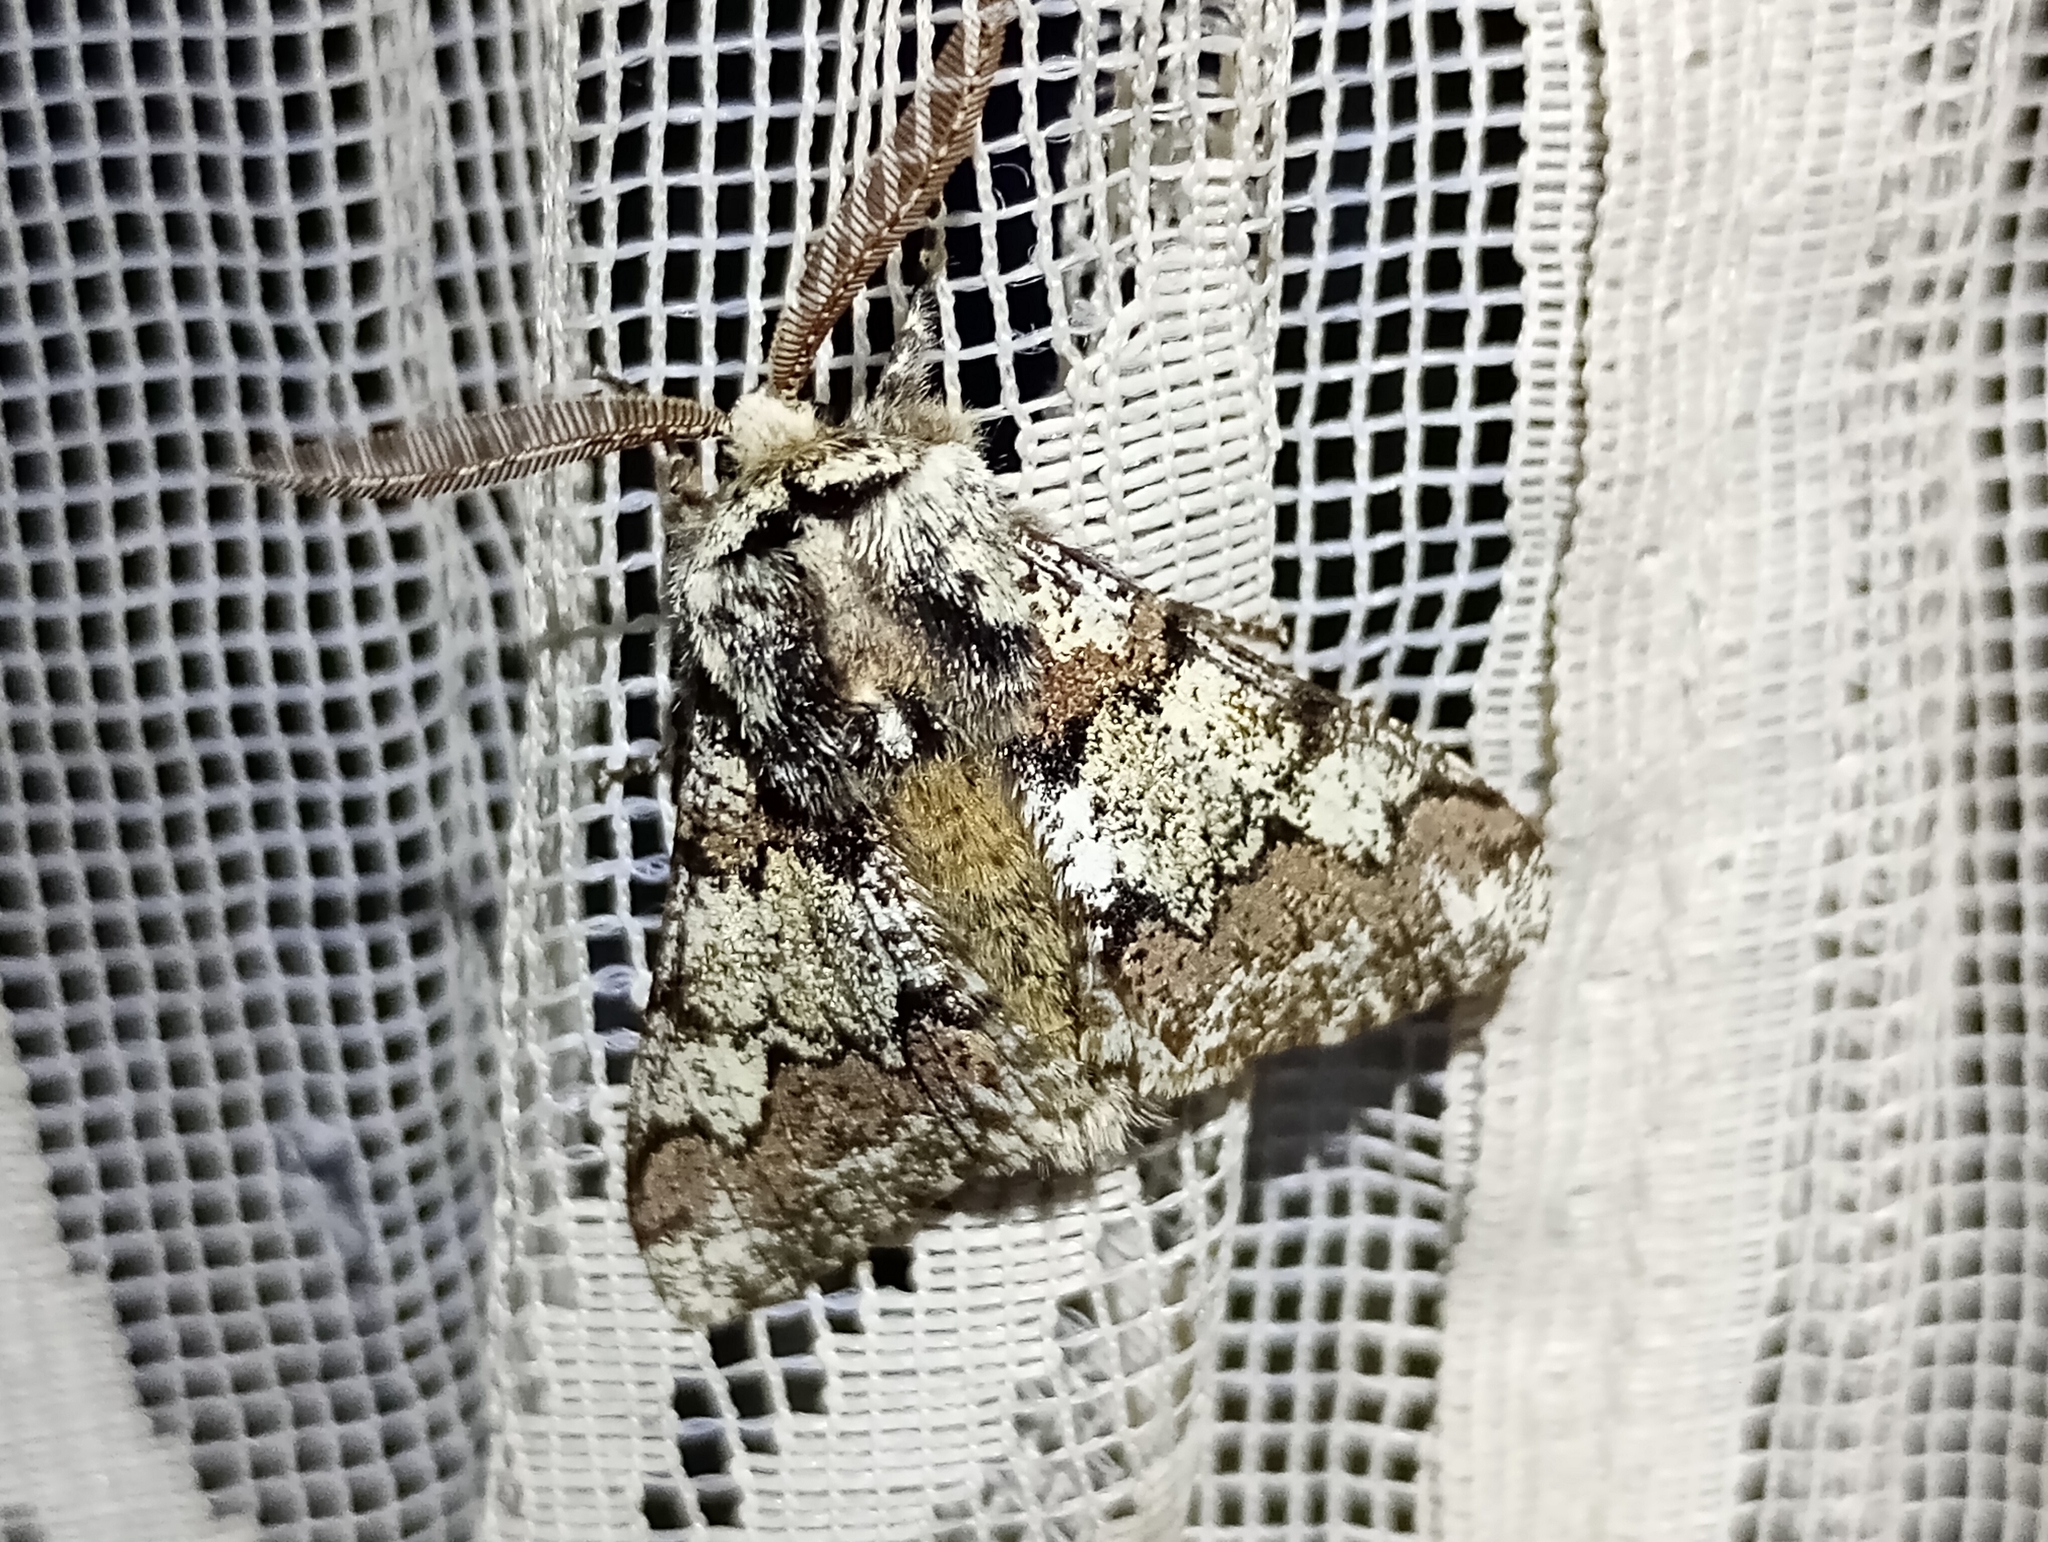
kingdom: Animalia
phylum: Arthropoda
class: Insecta
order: Lepidoptera
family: Geometridae
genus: Biston
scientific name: Biston strataria
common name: Oak beauty
